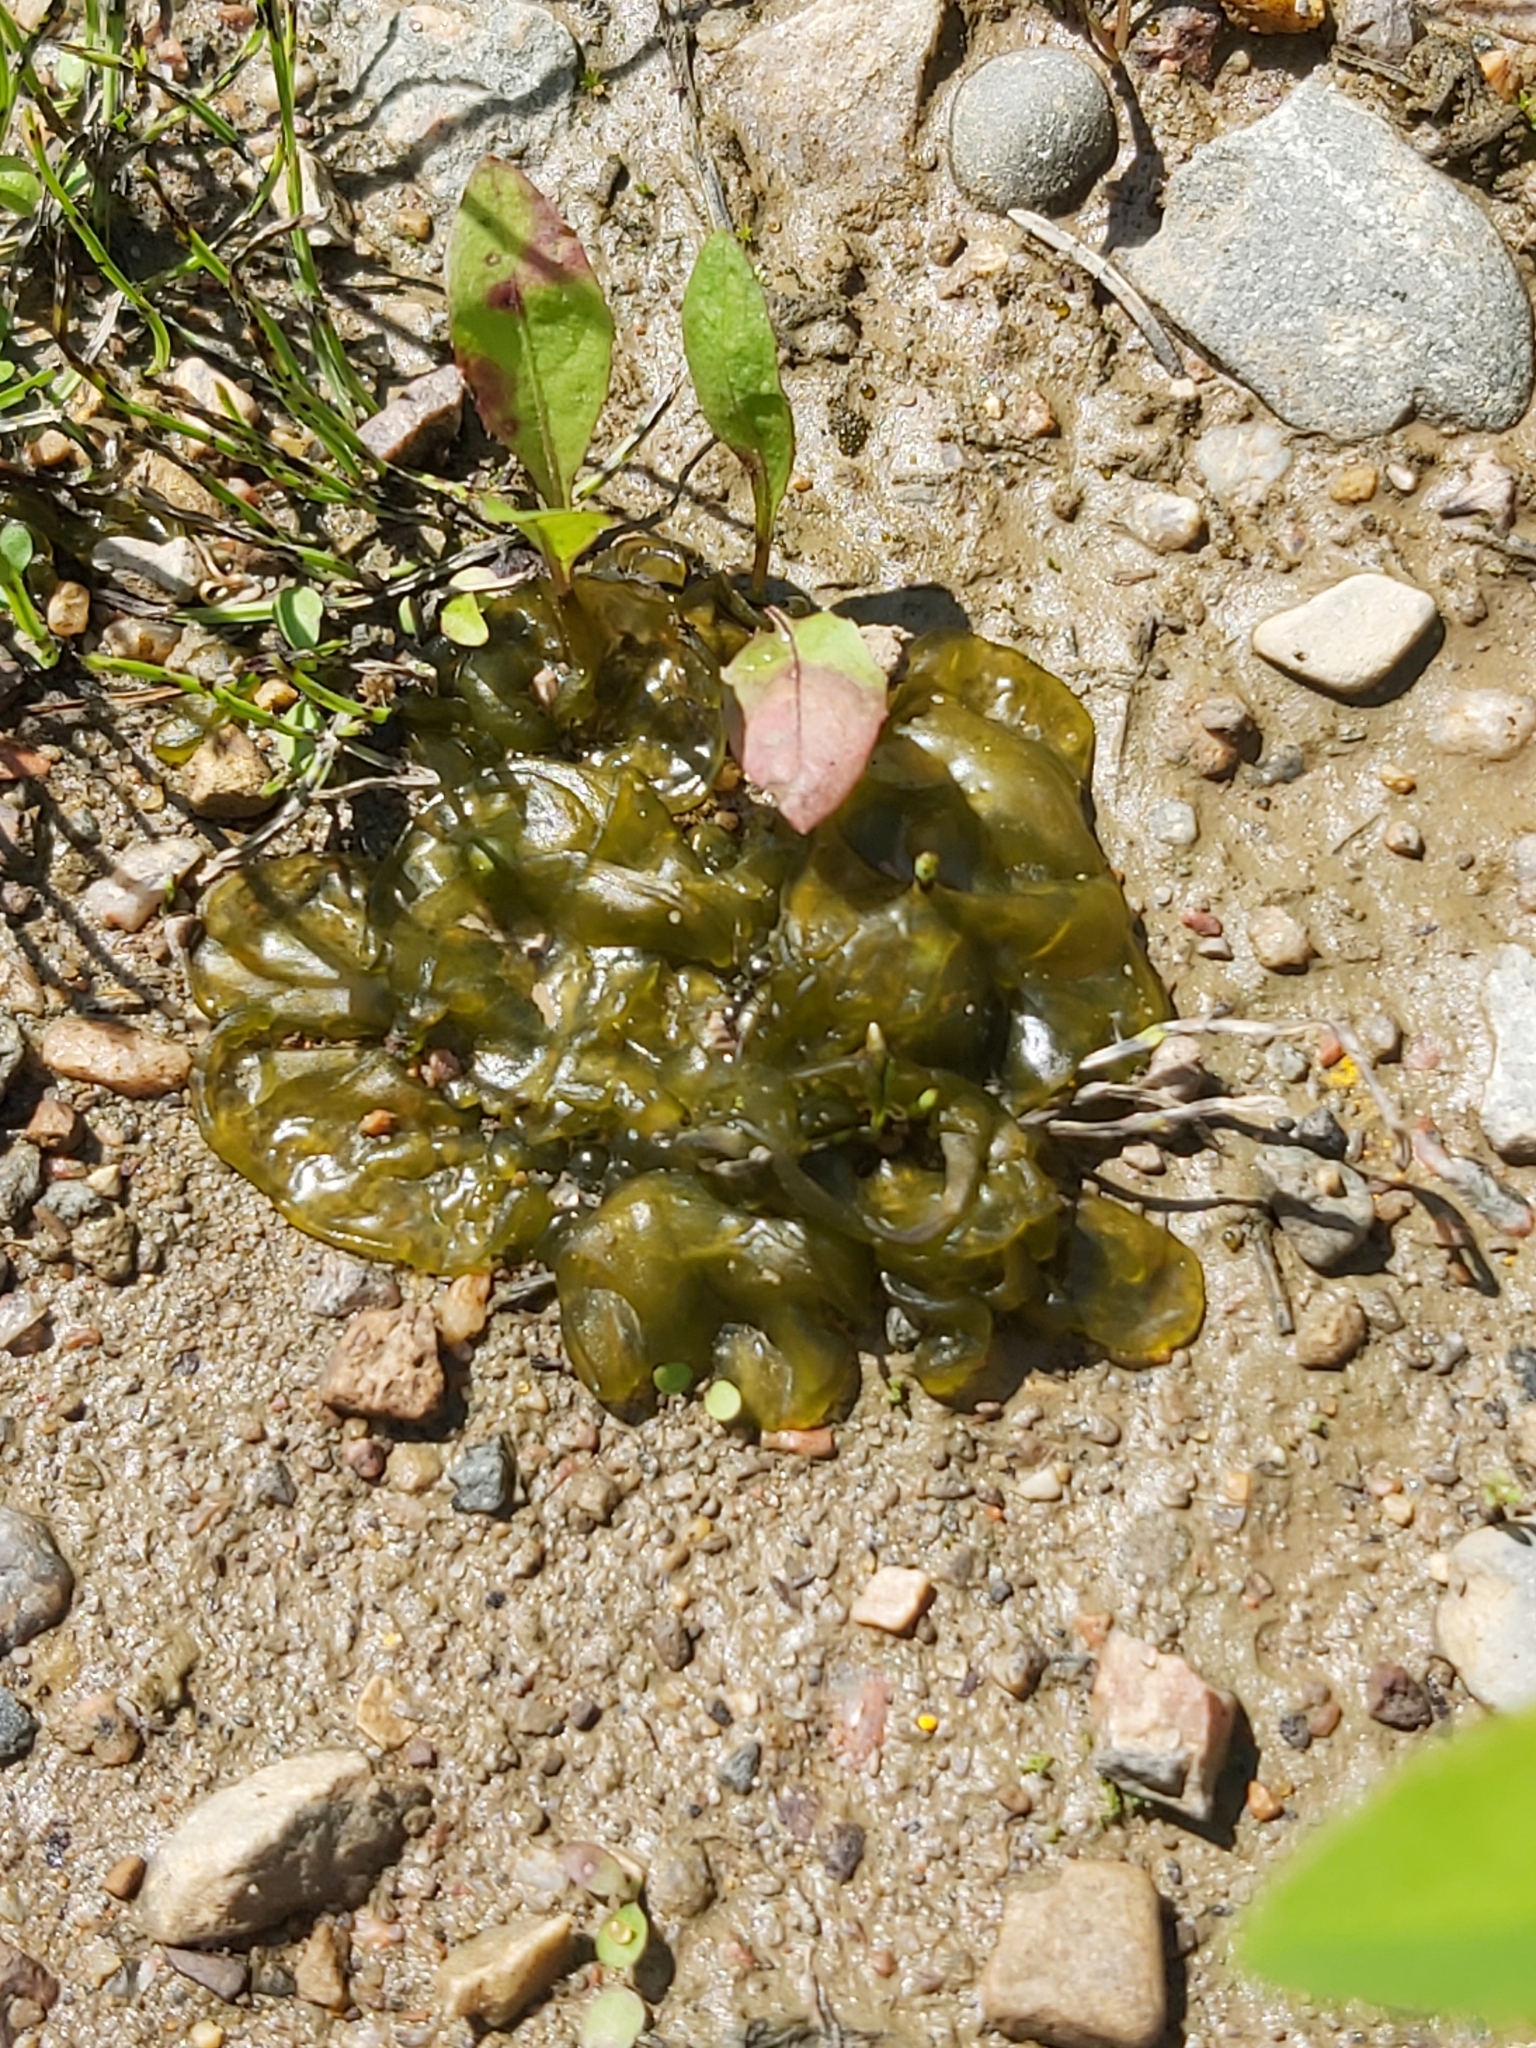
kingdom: Bacteria
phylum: Cyanobacteria
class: Cyanobacteriia
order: Cyanobacteriales
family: Nostocaceae
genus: Nostoc
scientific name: Nostoc commune
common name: Star jelly
